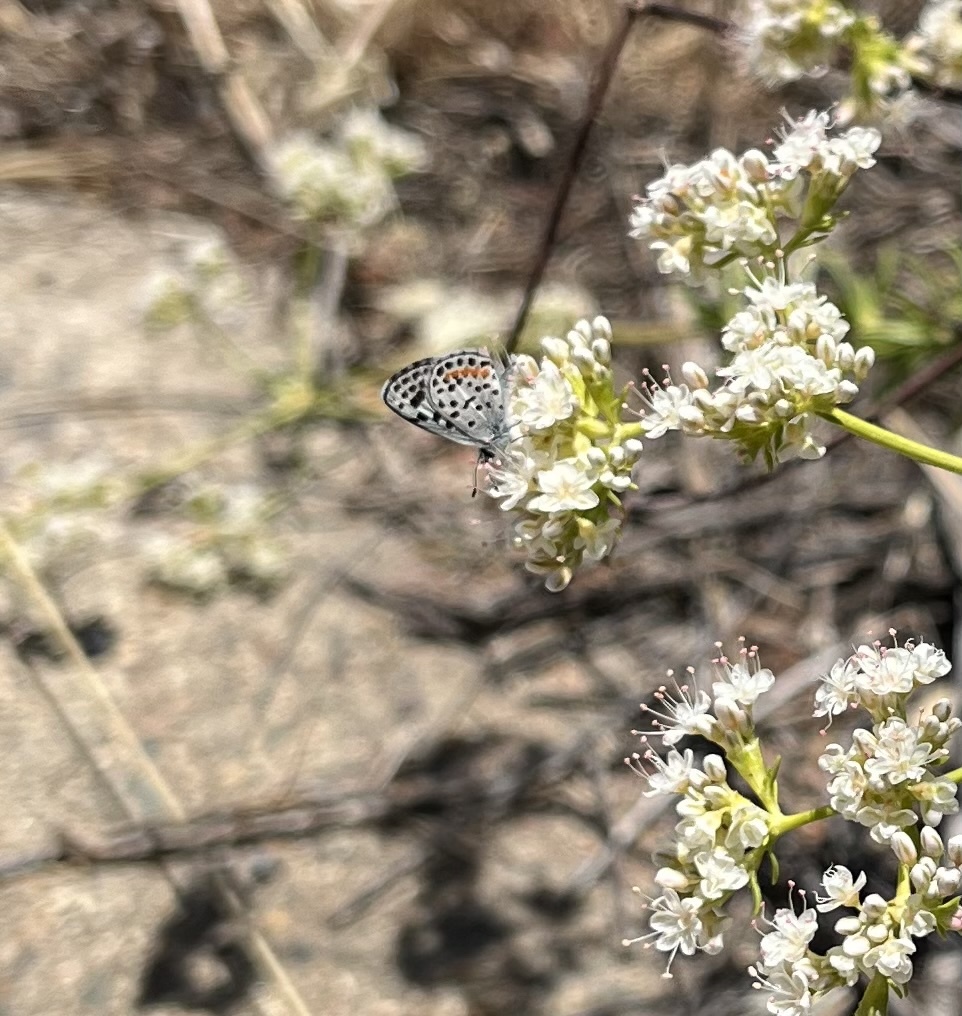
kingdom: Animalia
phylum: Arthropoda
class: Insecta
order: Lepidoptera
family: Lycaenidae
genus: Philotes
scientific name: Philotes bernardino
